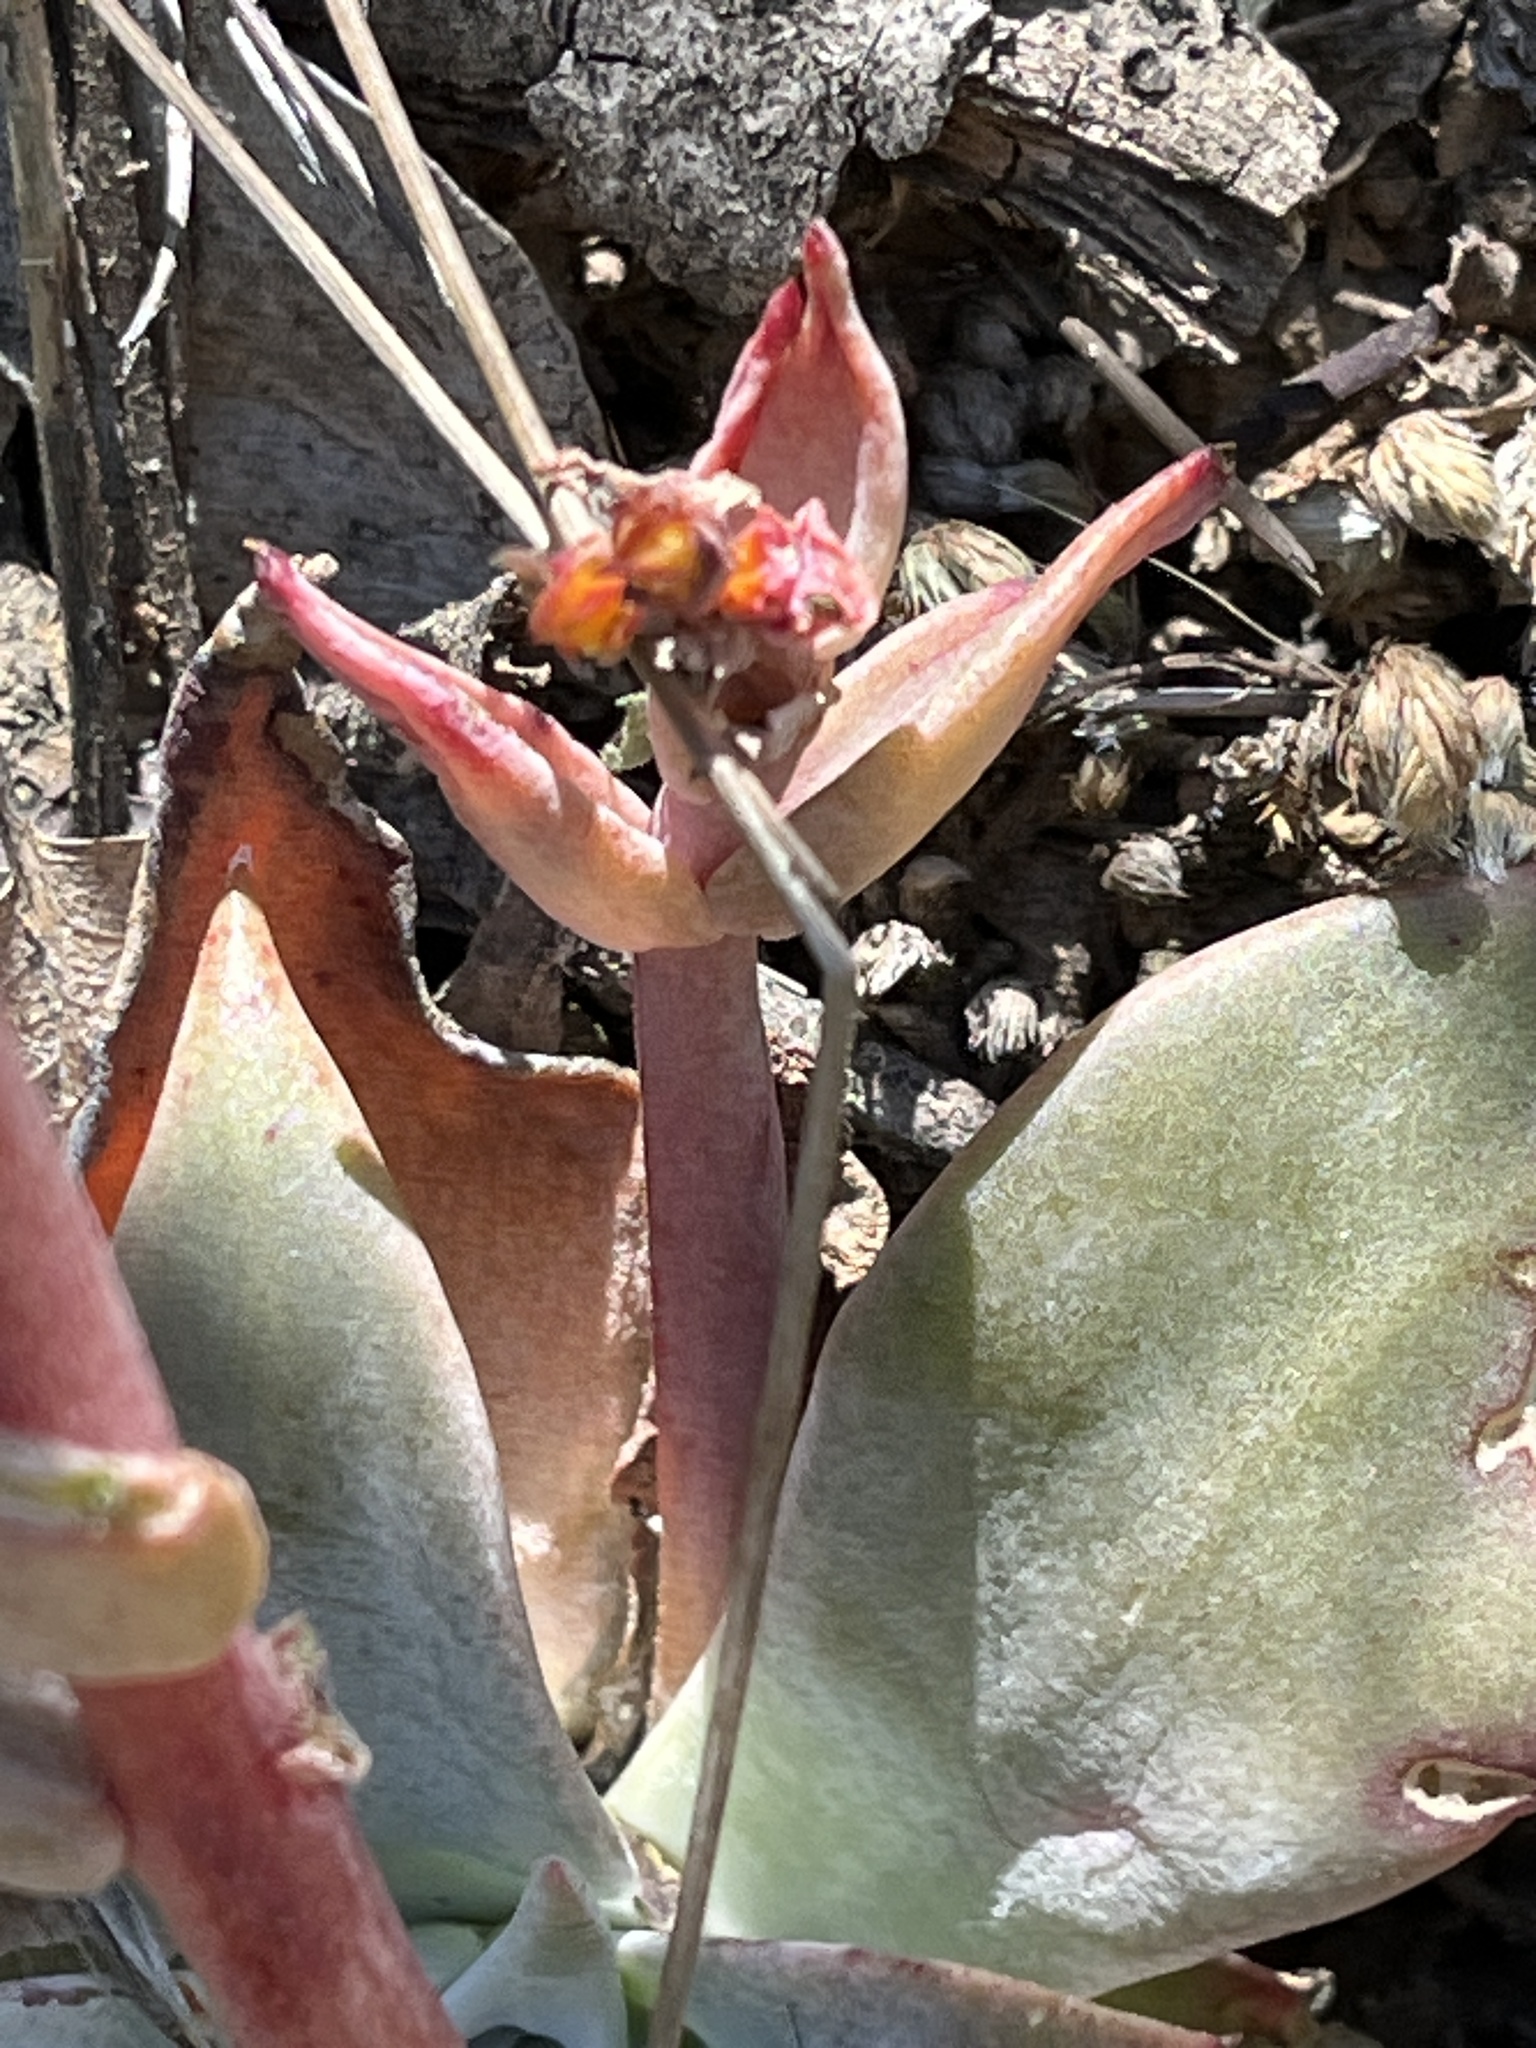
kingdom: Plantae
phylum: Tracheophyta
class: Magnoliopsida
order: Saxifragales
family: Crassulaceae
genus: Dudleya
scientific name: Dudleya cymosa
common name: Canyon dudleya
